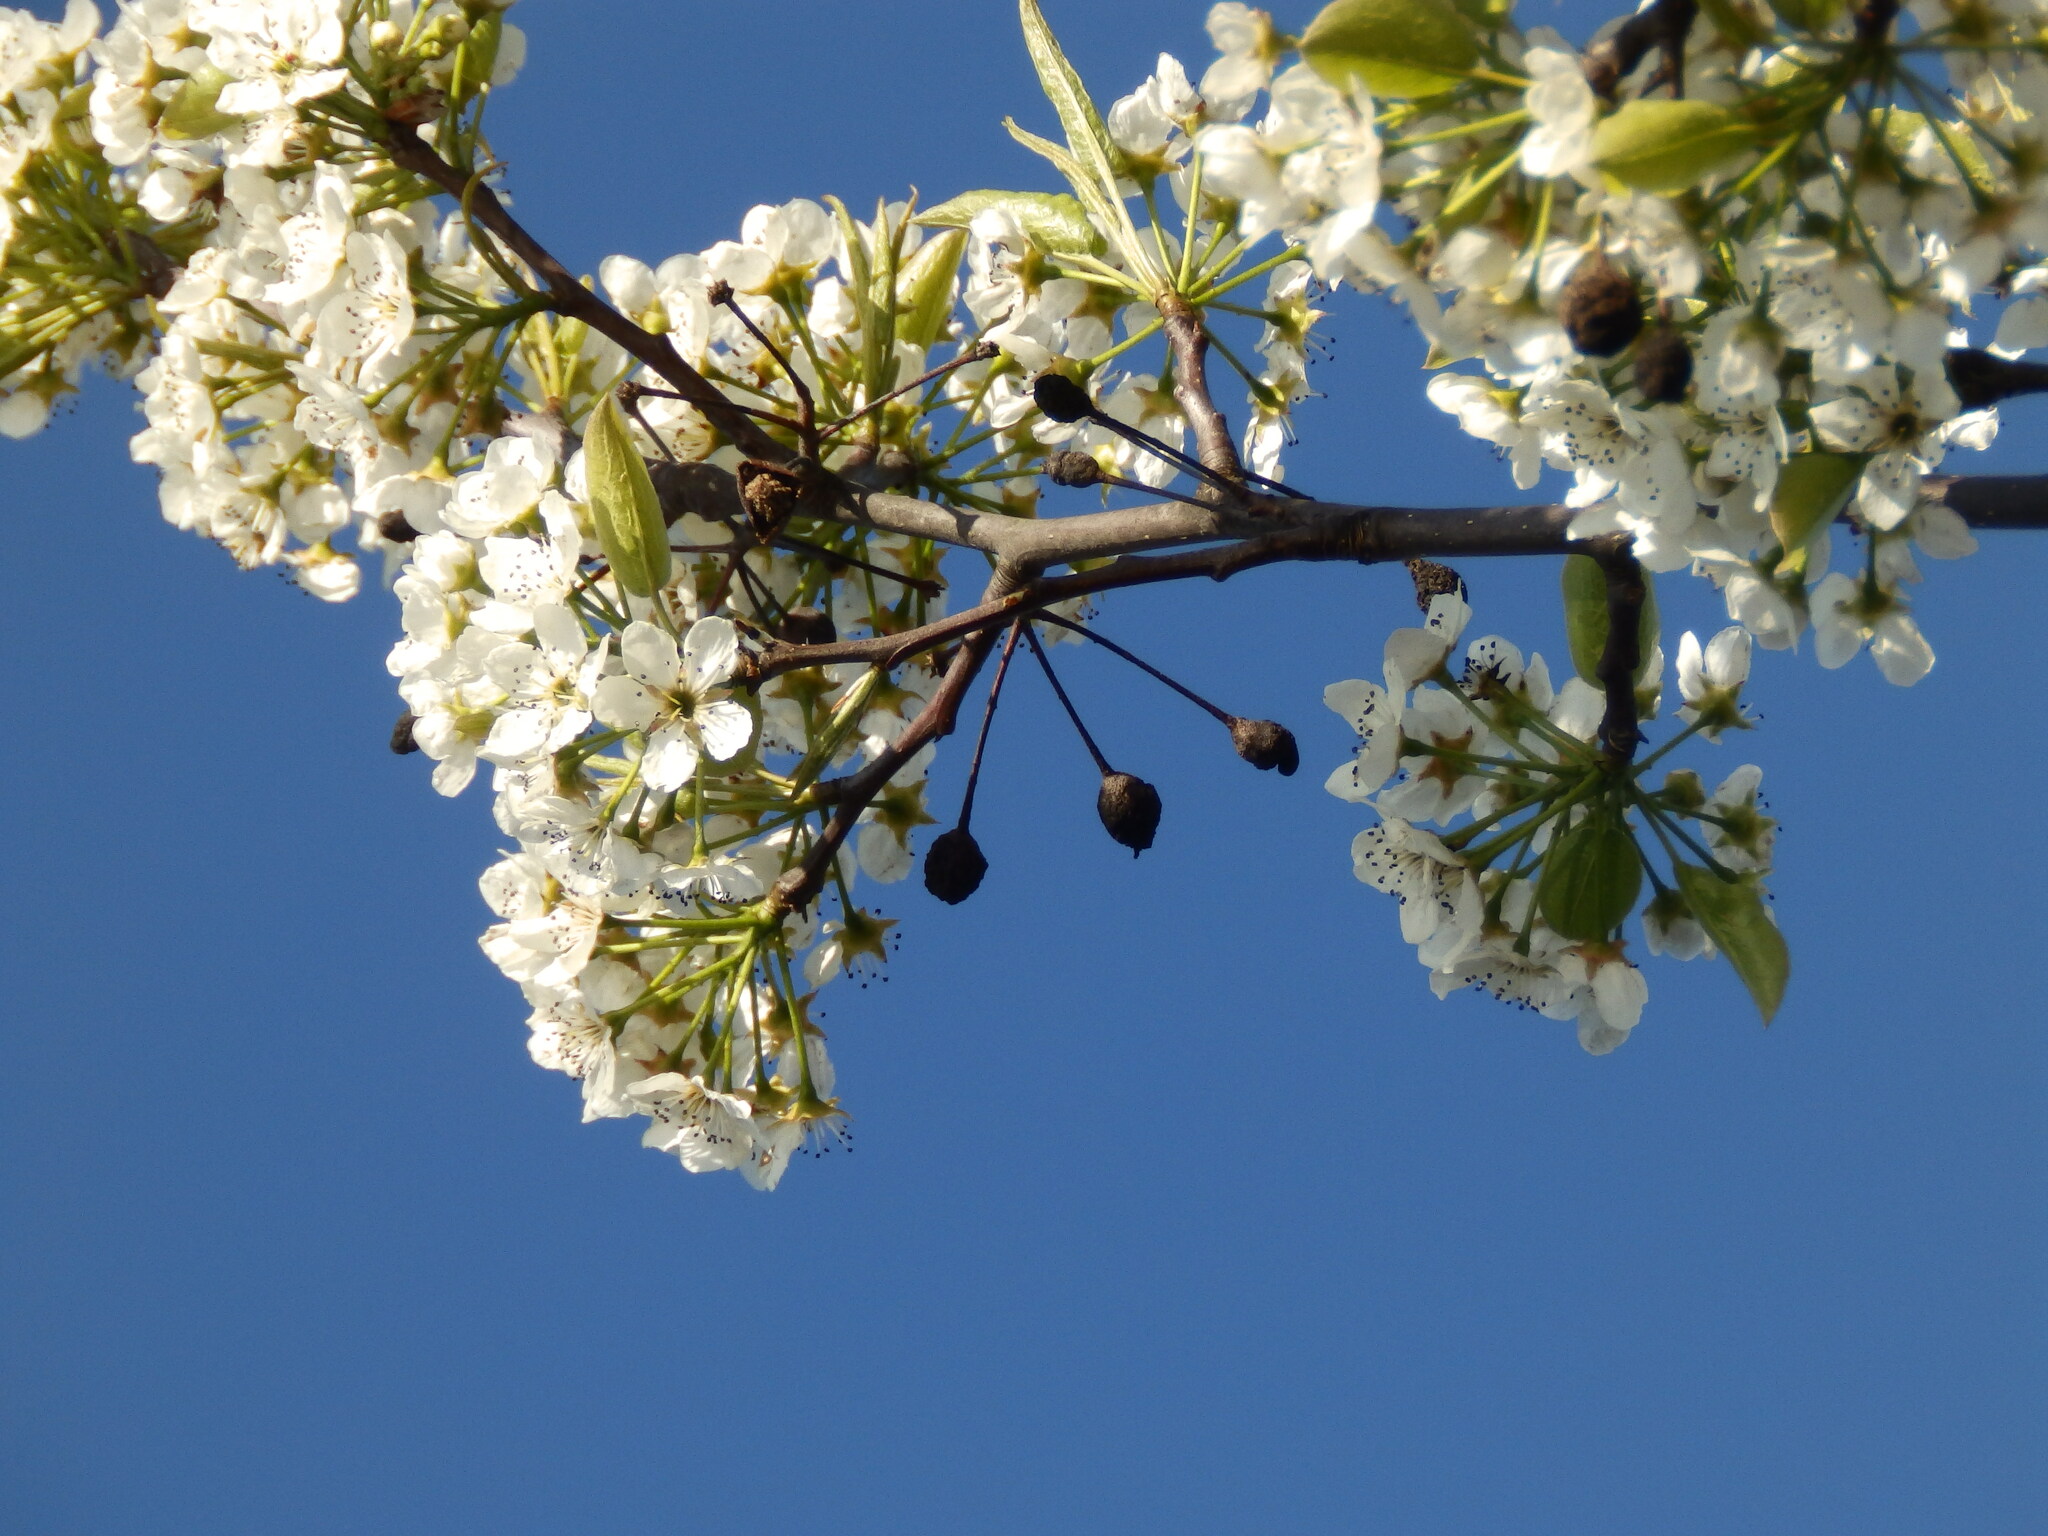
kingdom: Plantae
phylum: Tracheophyta
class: Magnoliopsida
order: Rosales
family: Rosaceae
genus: Pyrus
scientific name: Pyrus calleryana
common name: Callery pear
